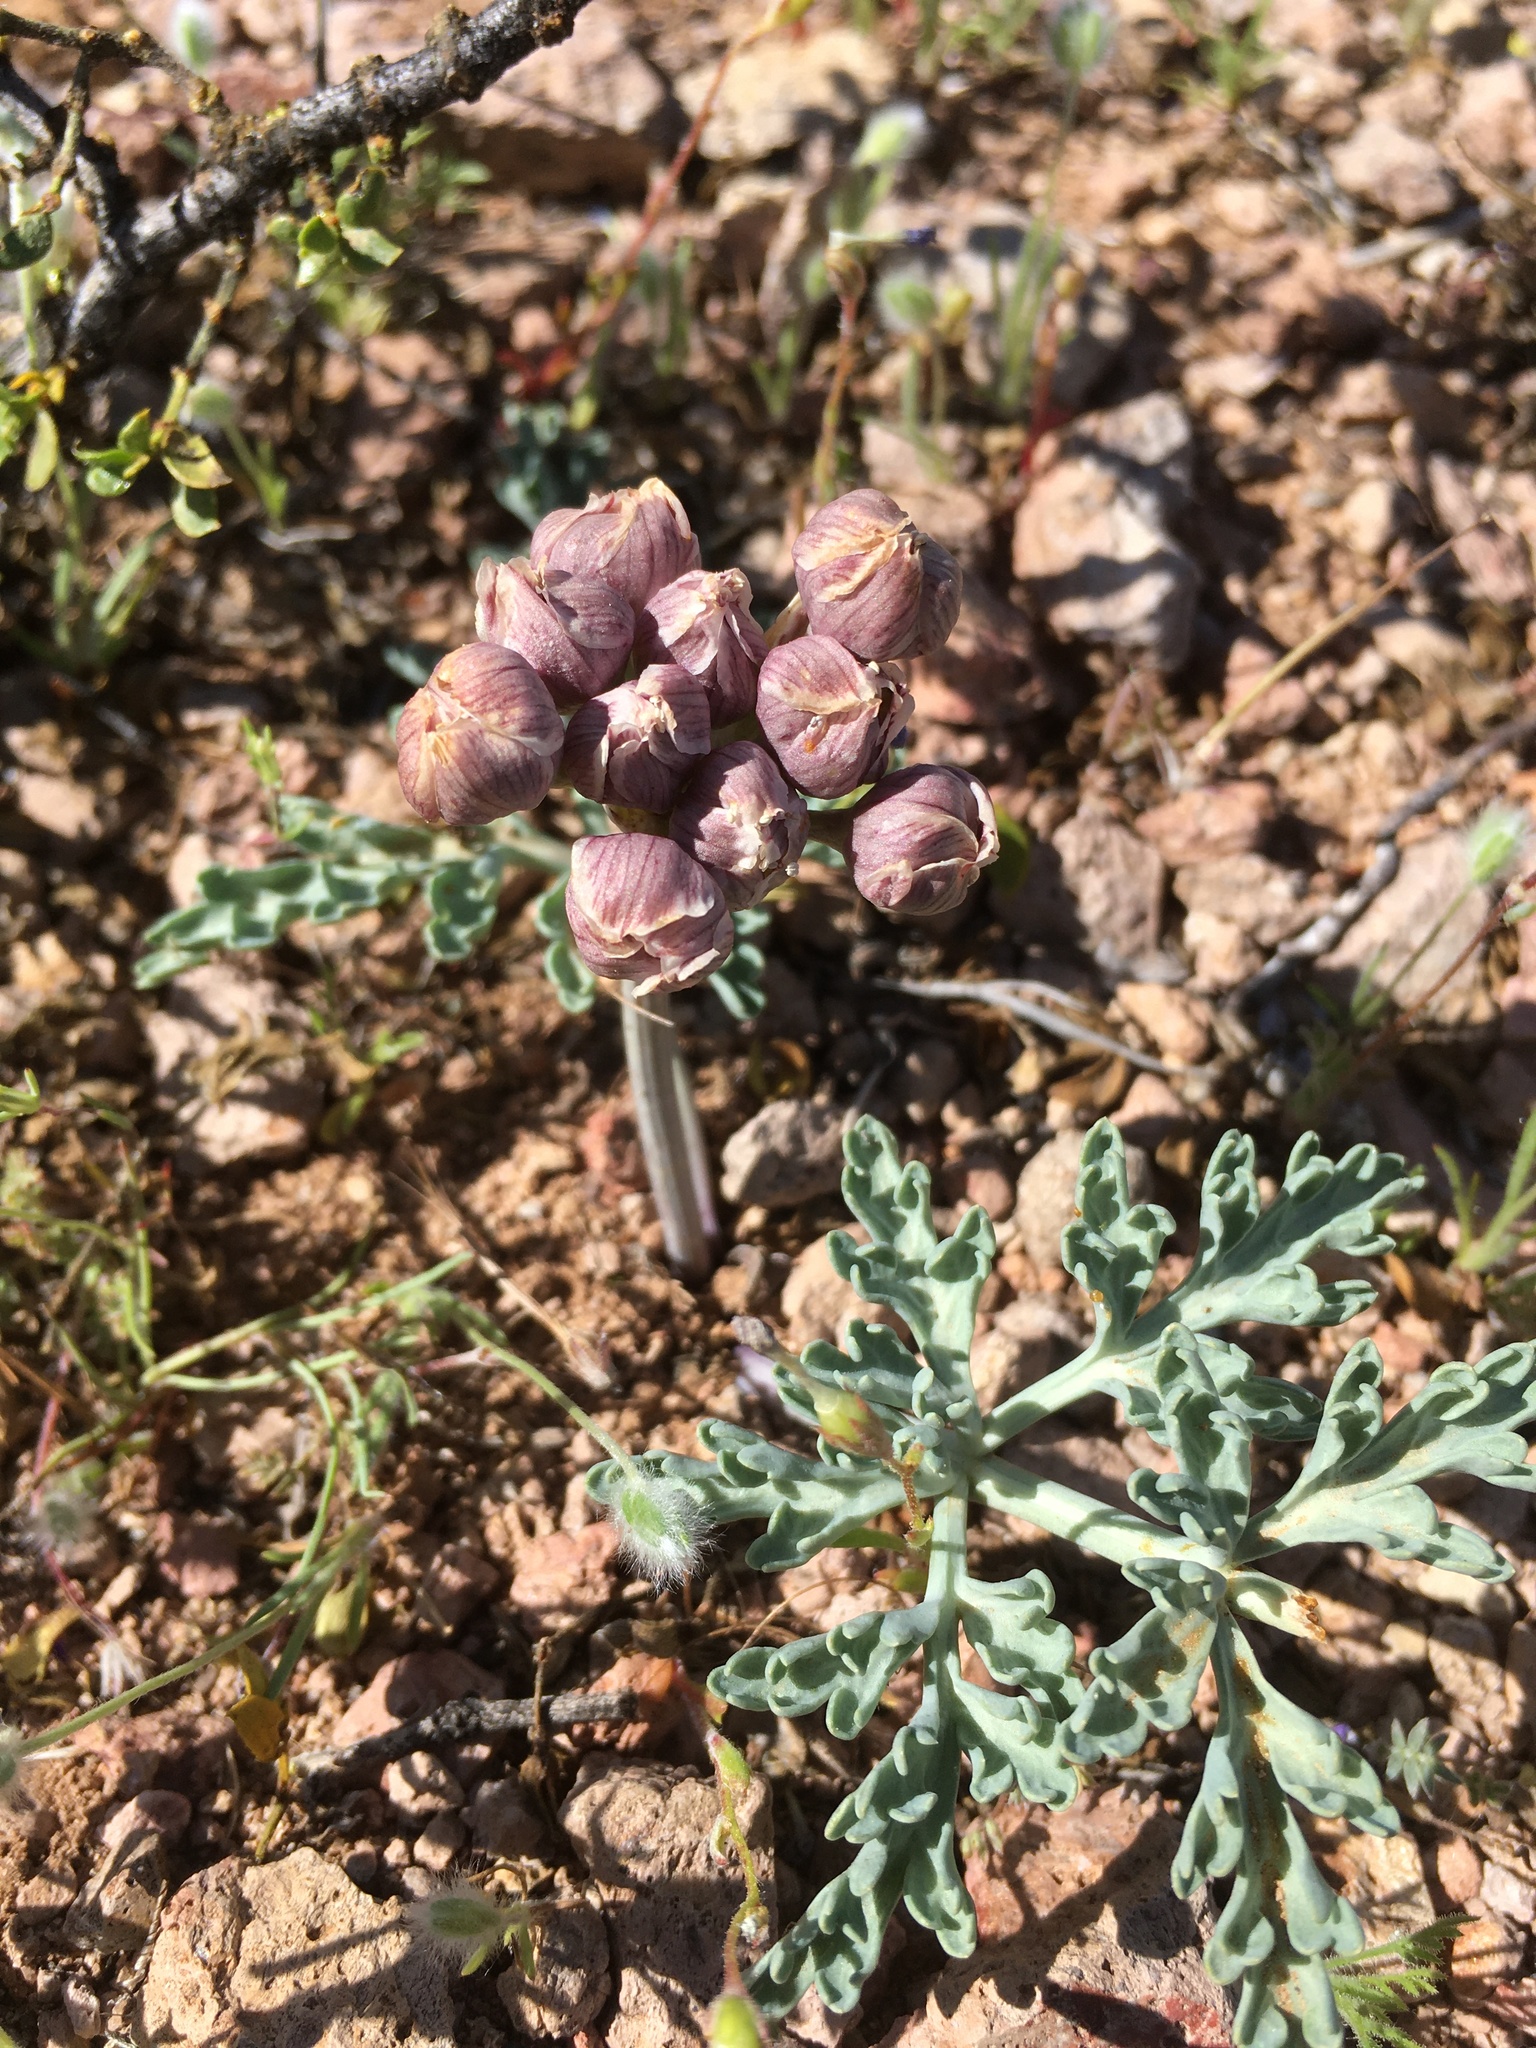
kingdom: Plantae
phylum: Tracheophyta
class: Magnoliopsida
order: Apiales
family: Apiaceae
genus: Vesper
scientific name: Vesper multinervatus
